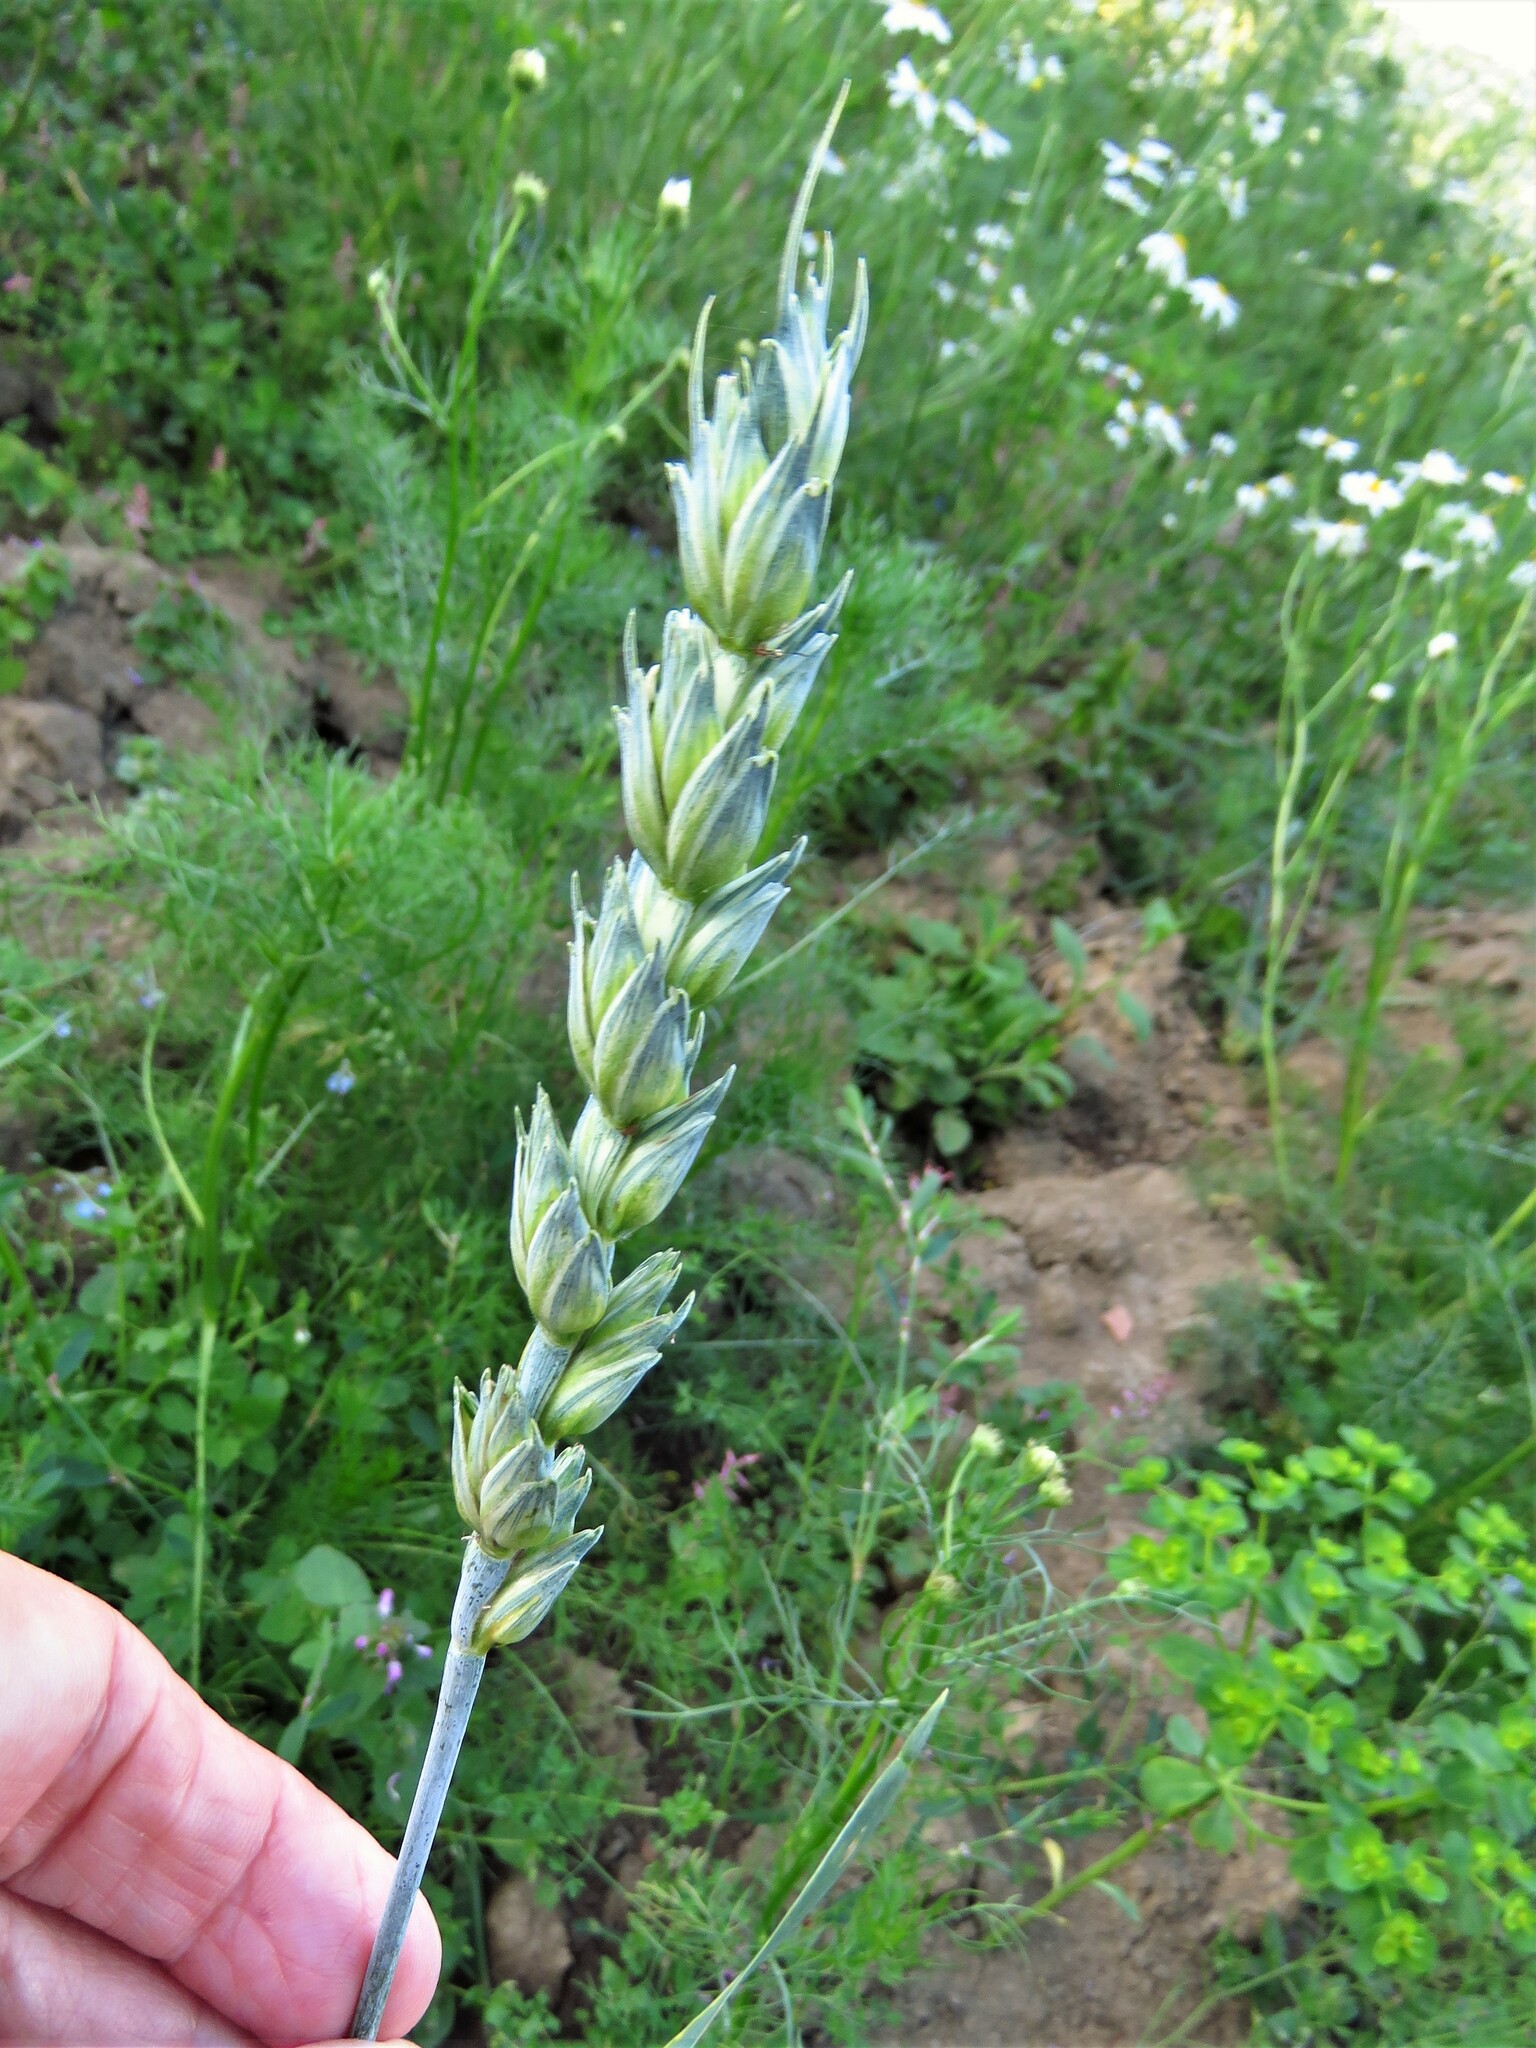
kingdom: Plantae
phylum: Tracheophyta
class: Liliopsida
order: Poales
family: Poaceae
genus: Triticum
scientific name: Triticum aestivum
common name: Common wheat
